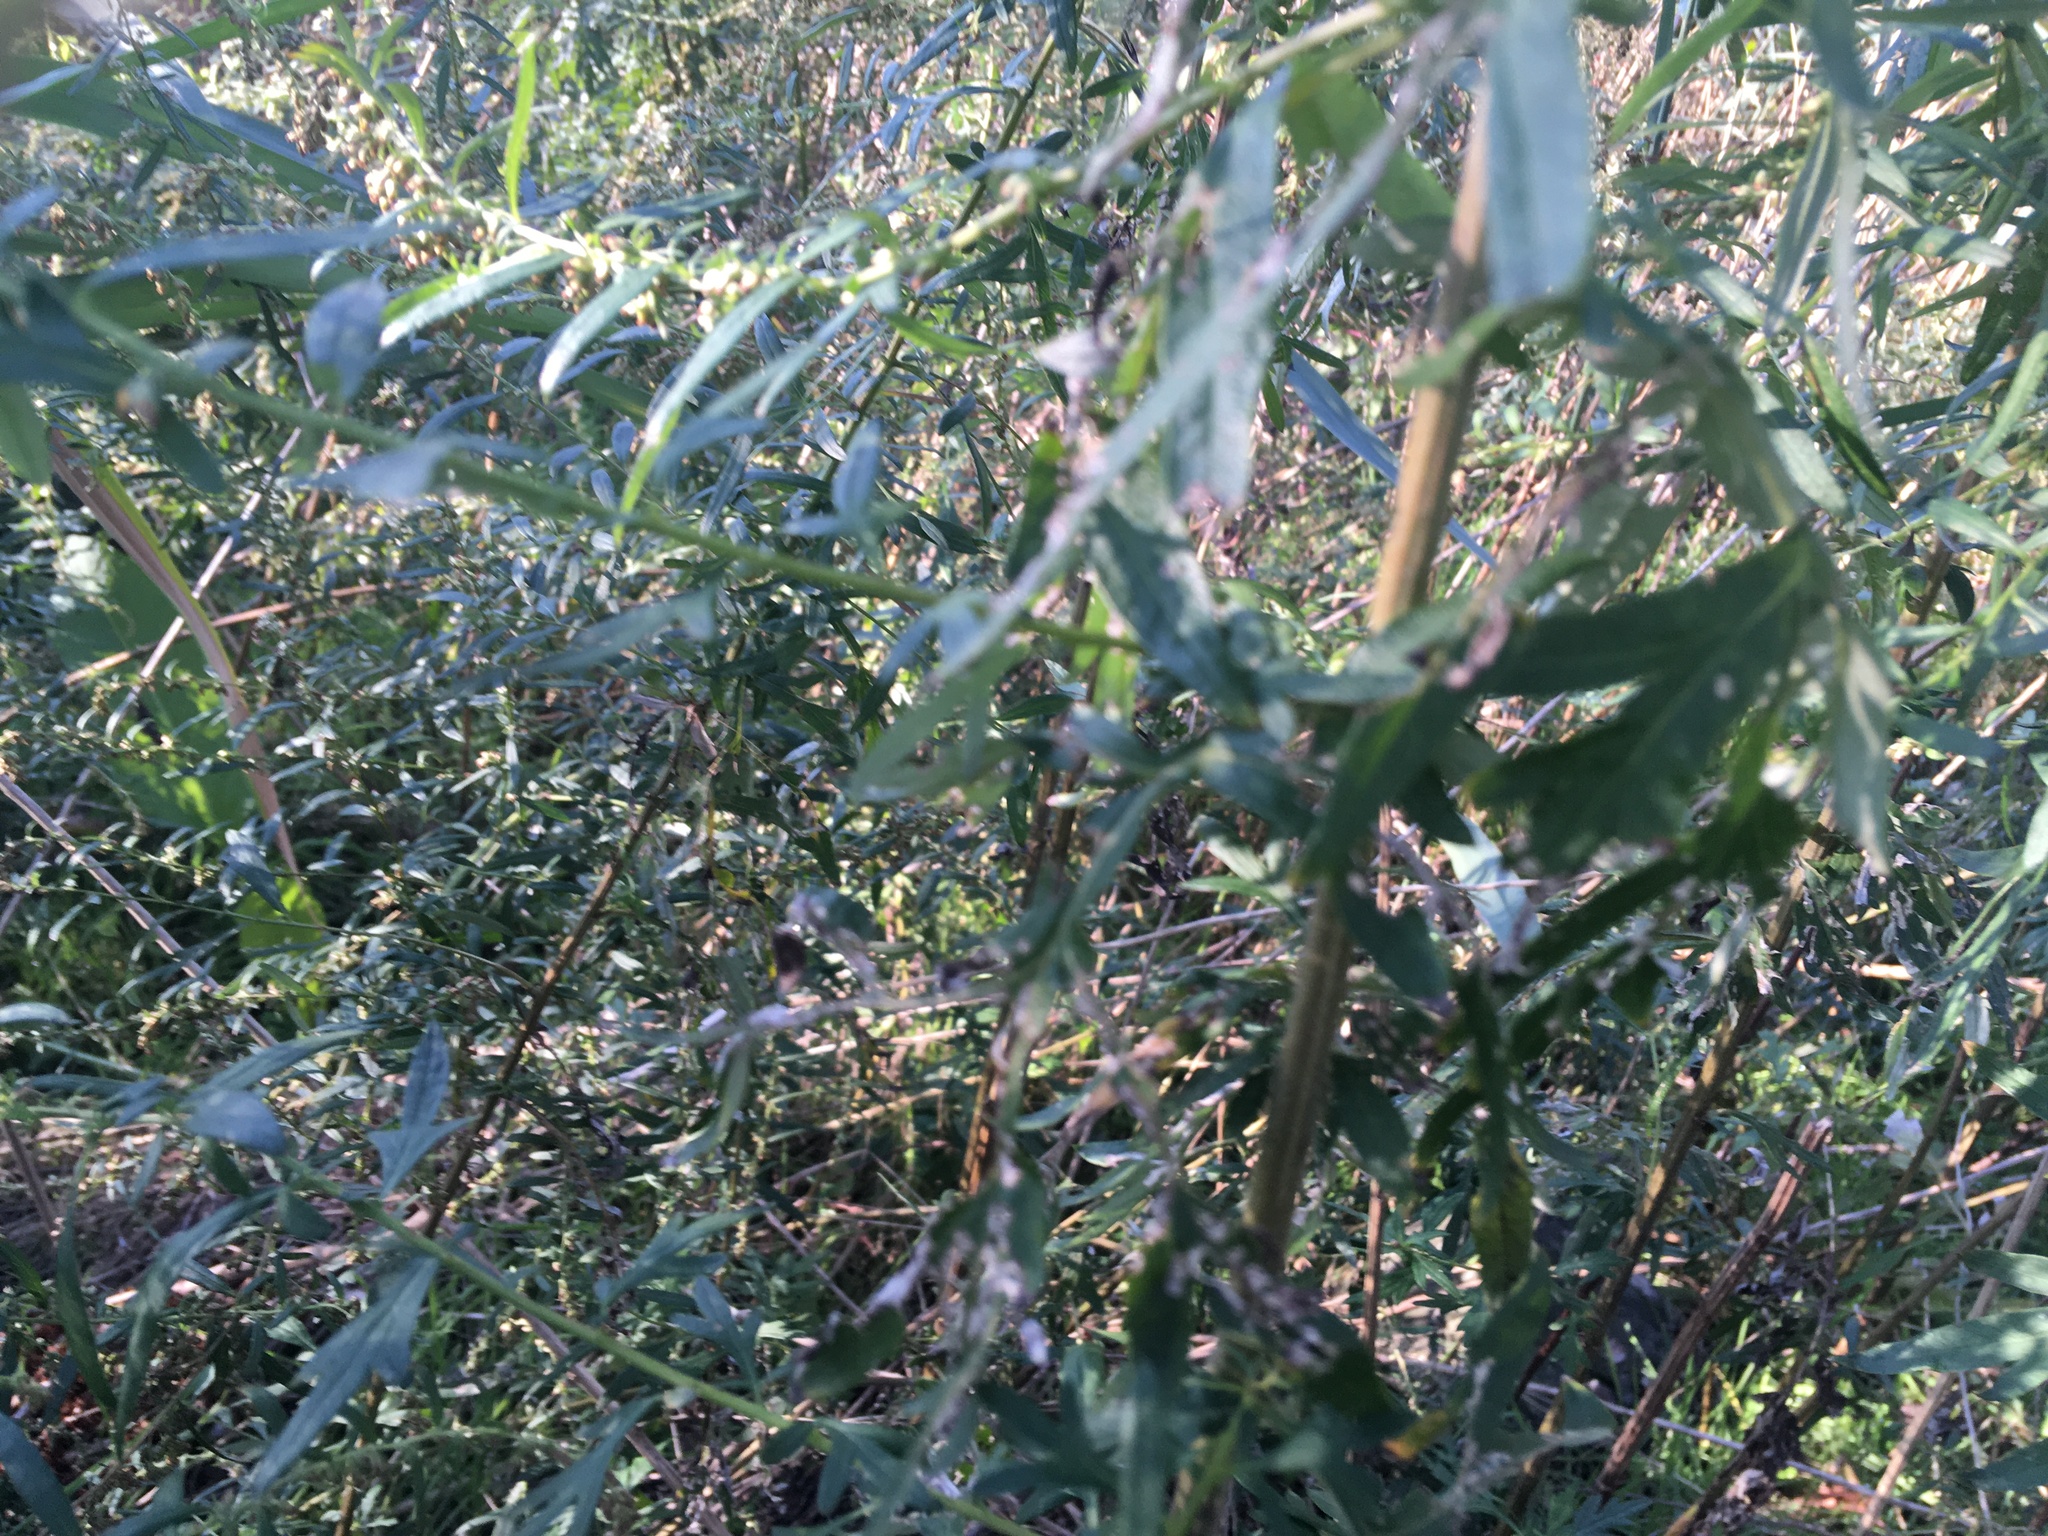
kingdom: Plantae
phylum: Tracheophyta
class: Magnoliopsida
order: Asterales
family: Asteraceae
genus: Artemisia
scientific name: Artemisia vulgaris
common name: Mugwort
